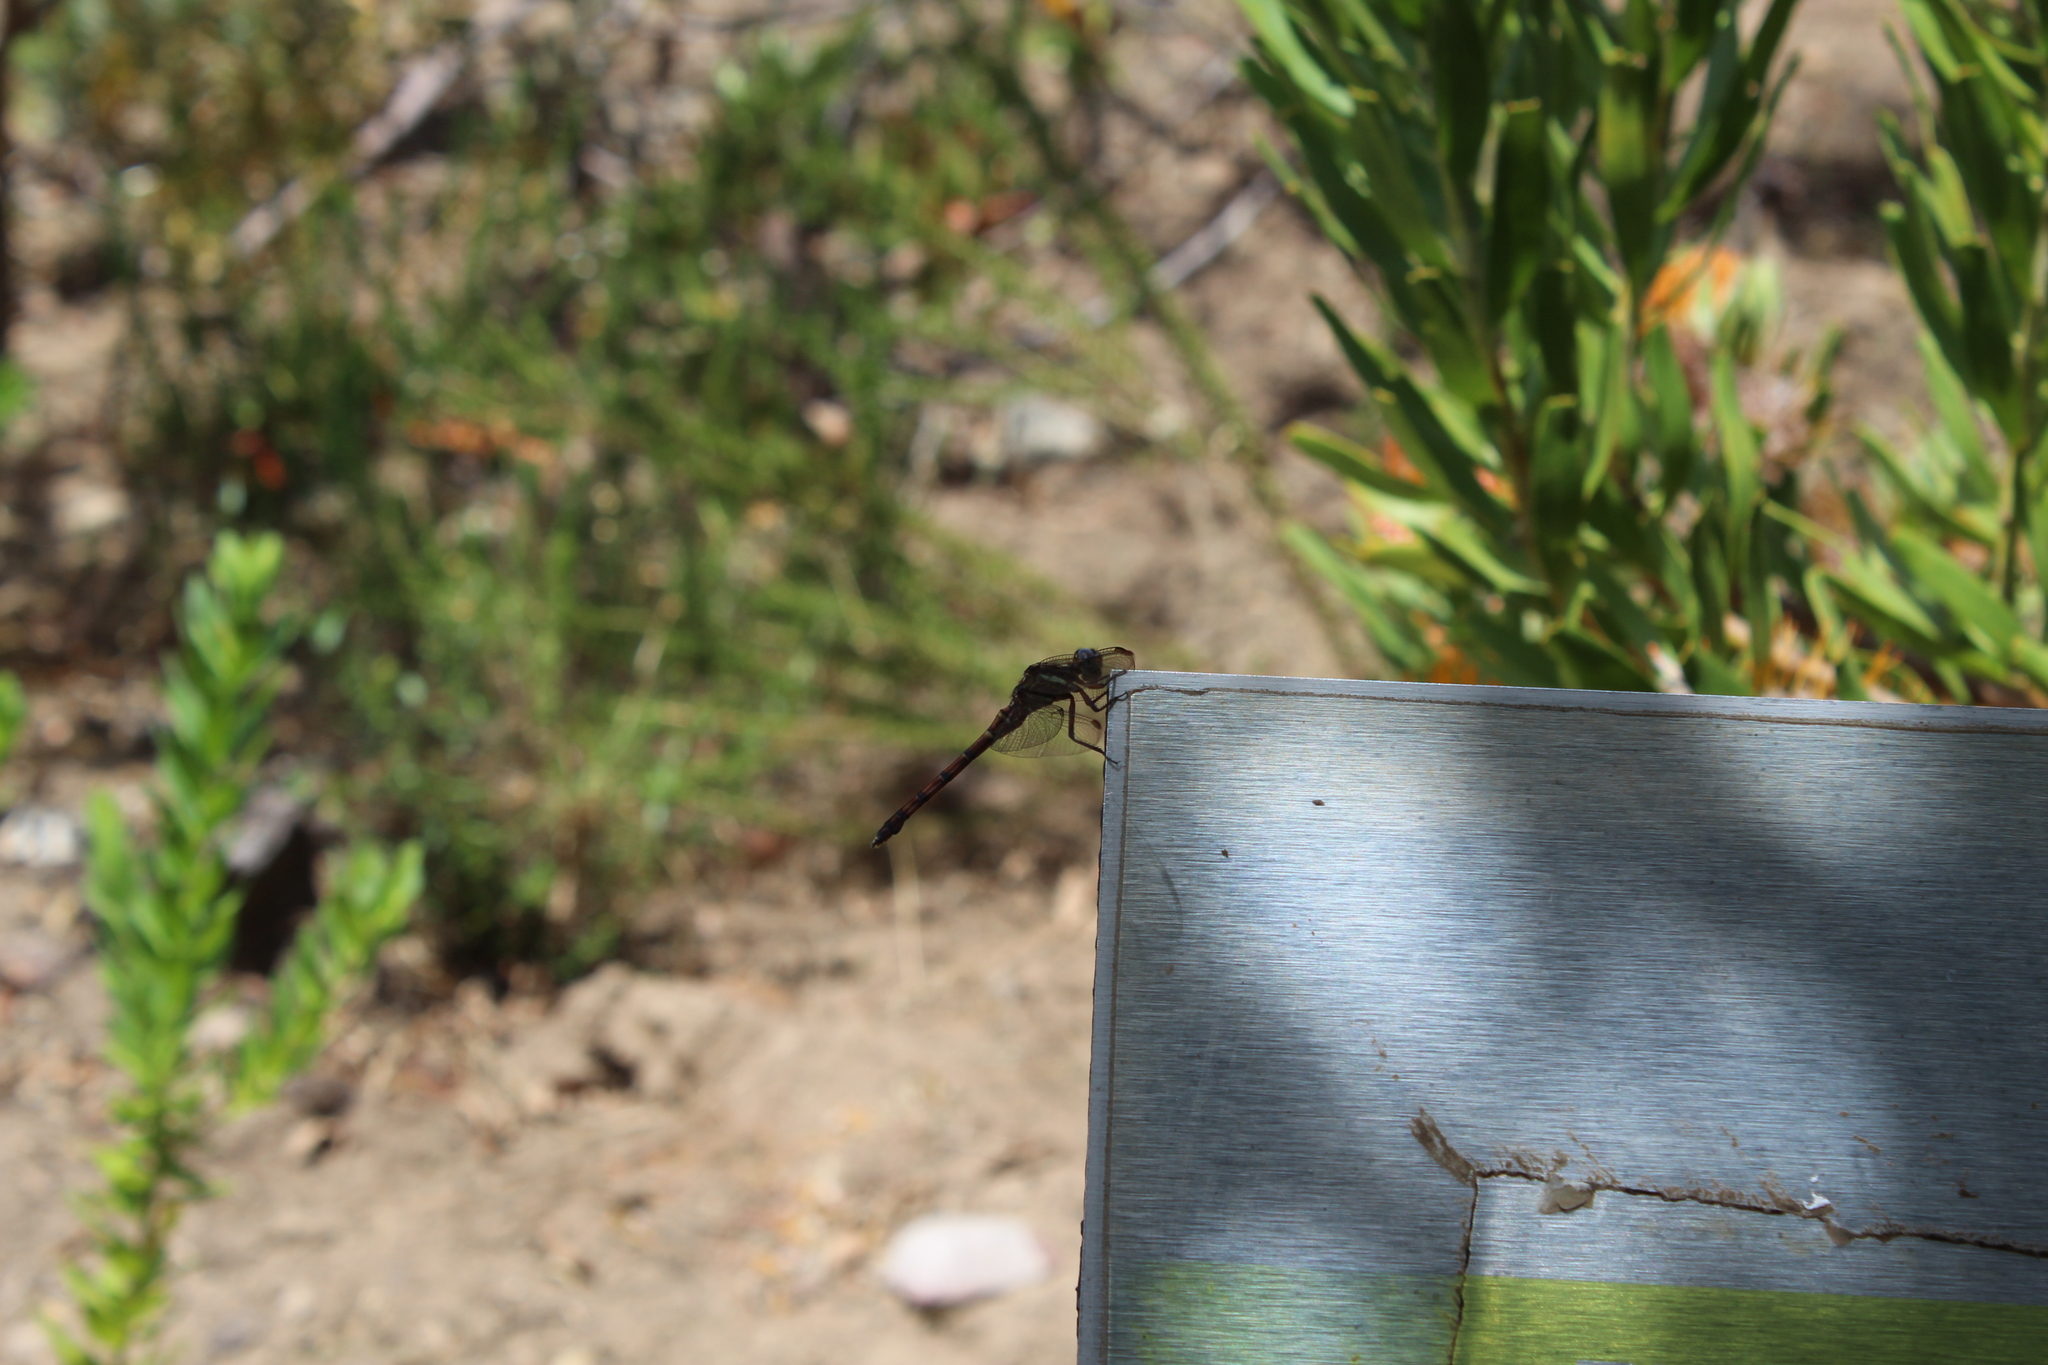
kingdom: Animalia
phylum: Arthropoda
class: Insecta
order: Odonata
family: Libellulidae
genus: Orthetrum
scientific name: Orthetrum julia
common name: Julia skimmer
